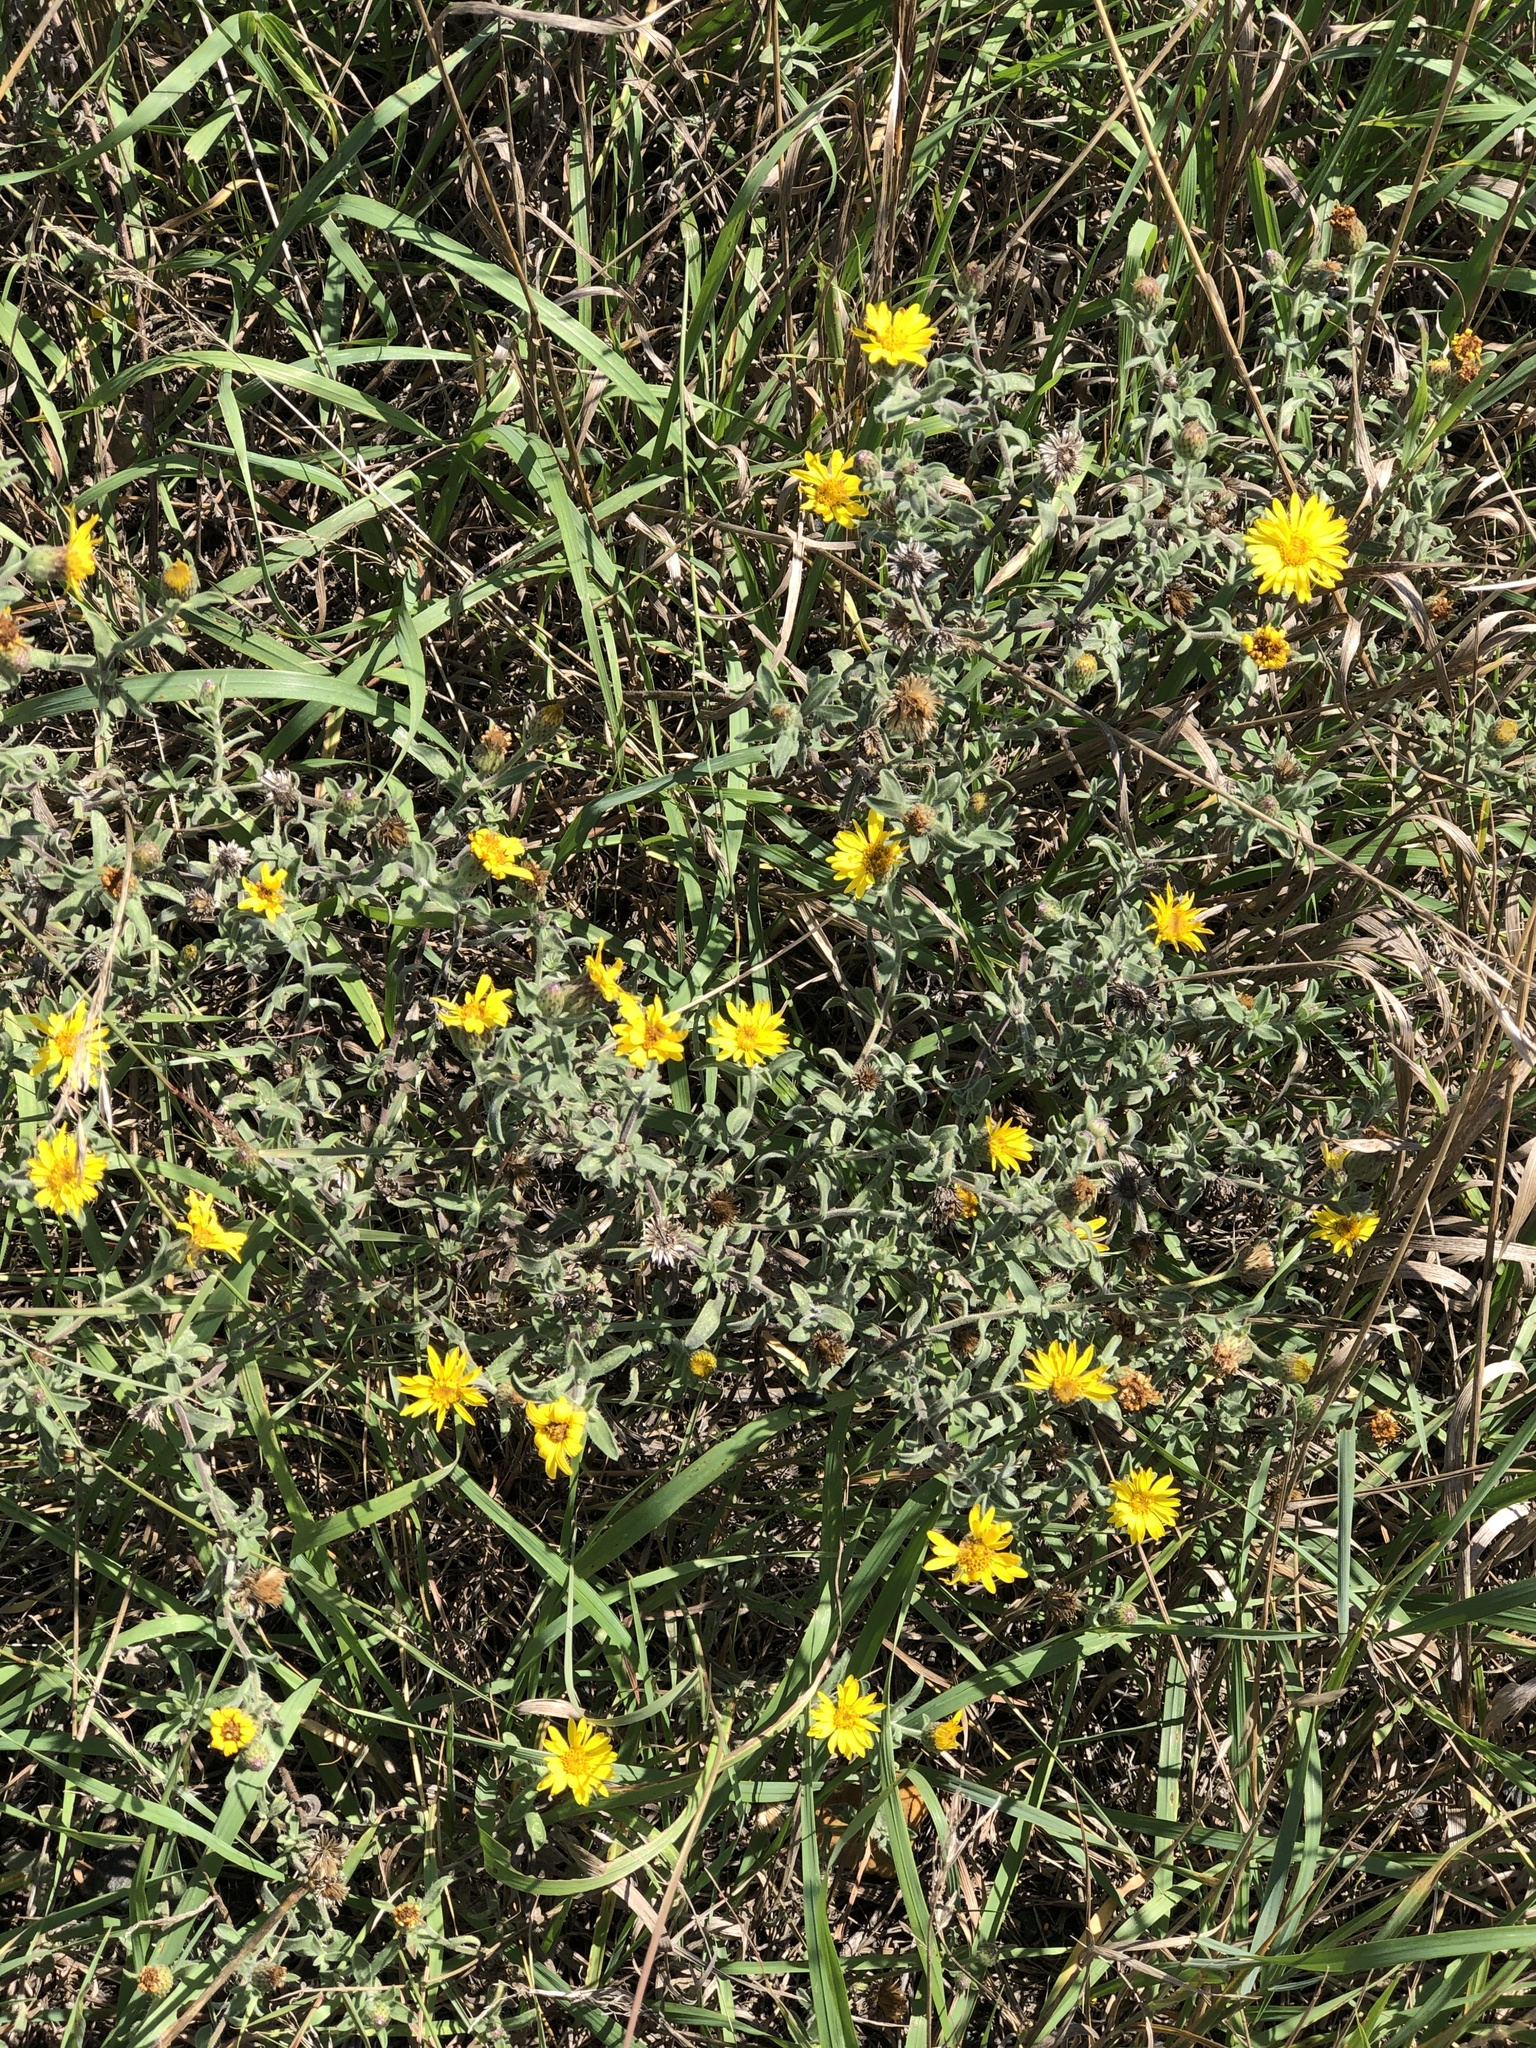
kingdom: Plantae
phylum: Tracheophyta
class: Magnoliopsida
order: Asterales
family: Asteraceae
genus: Heterotheca
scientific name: Heterotheca villosa
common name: Hairy false goldenaster
